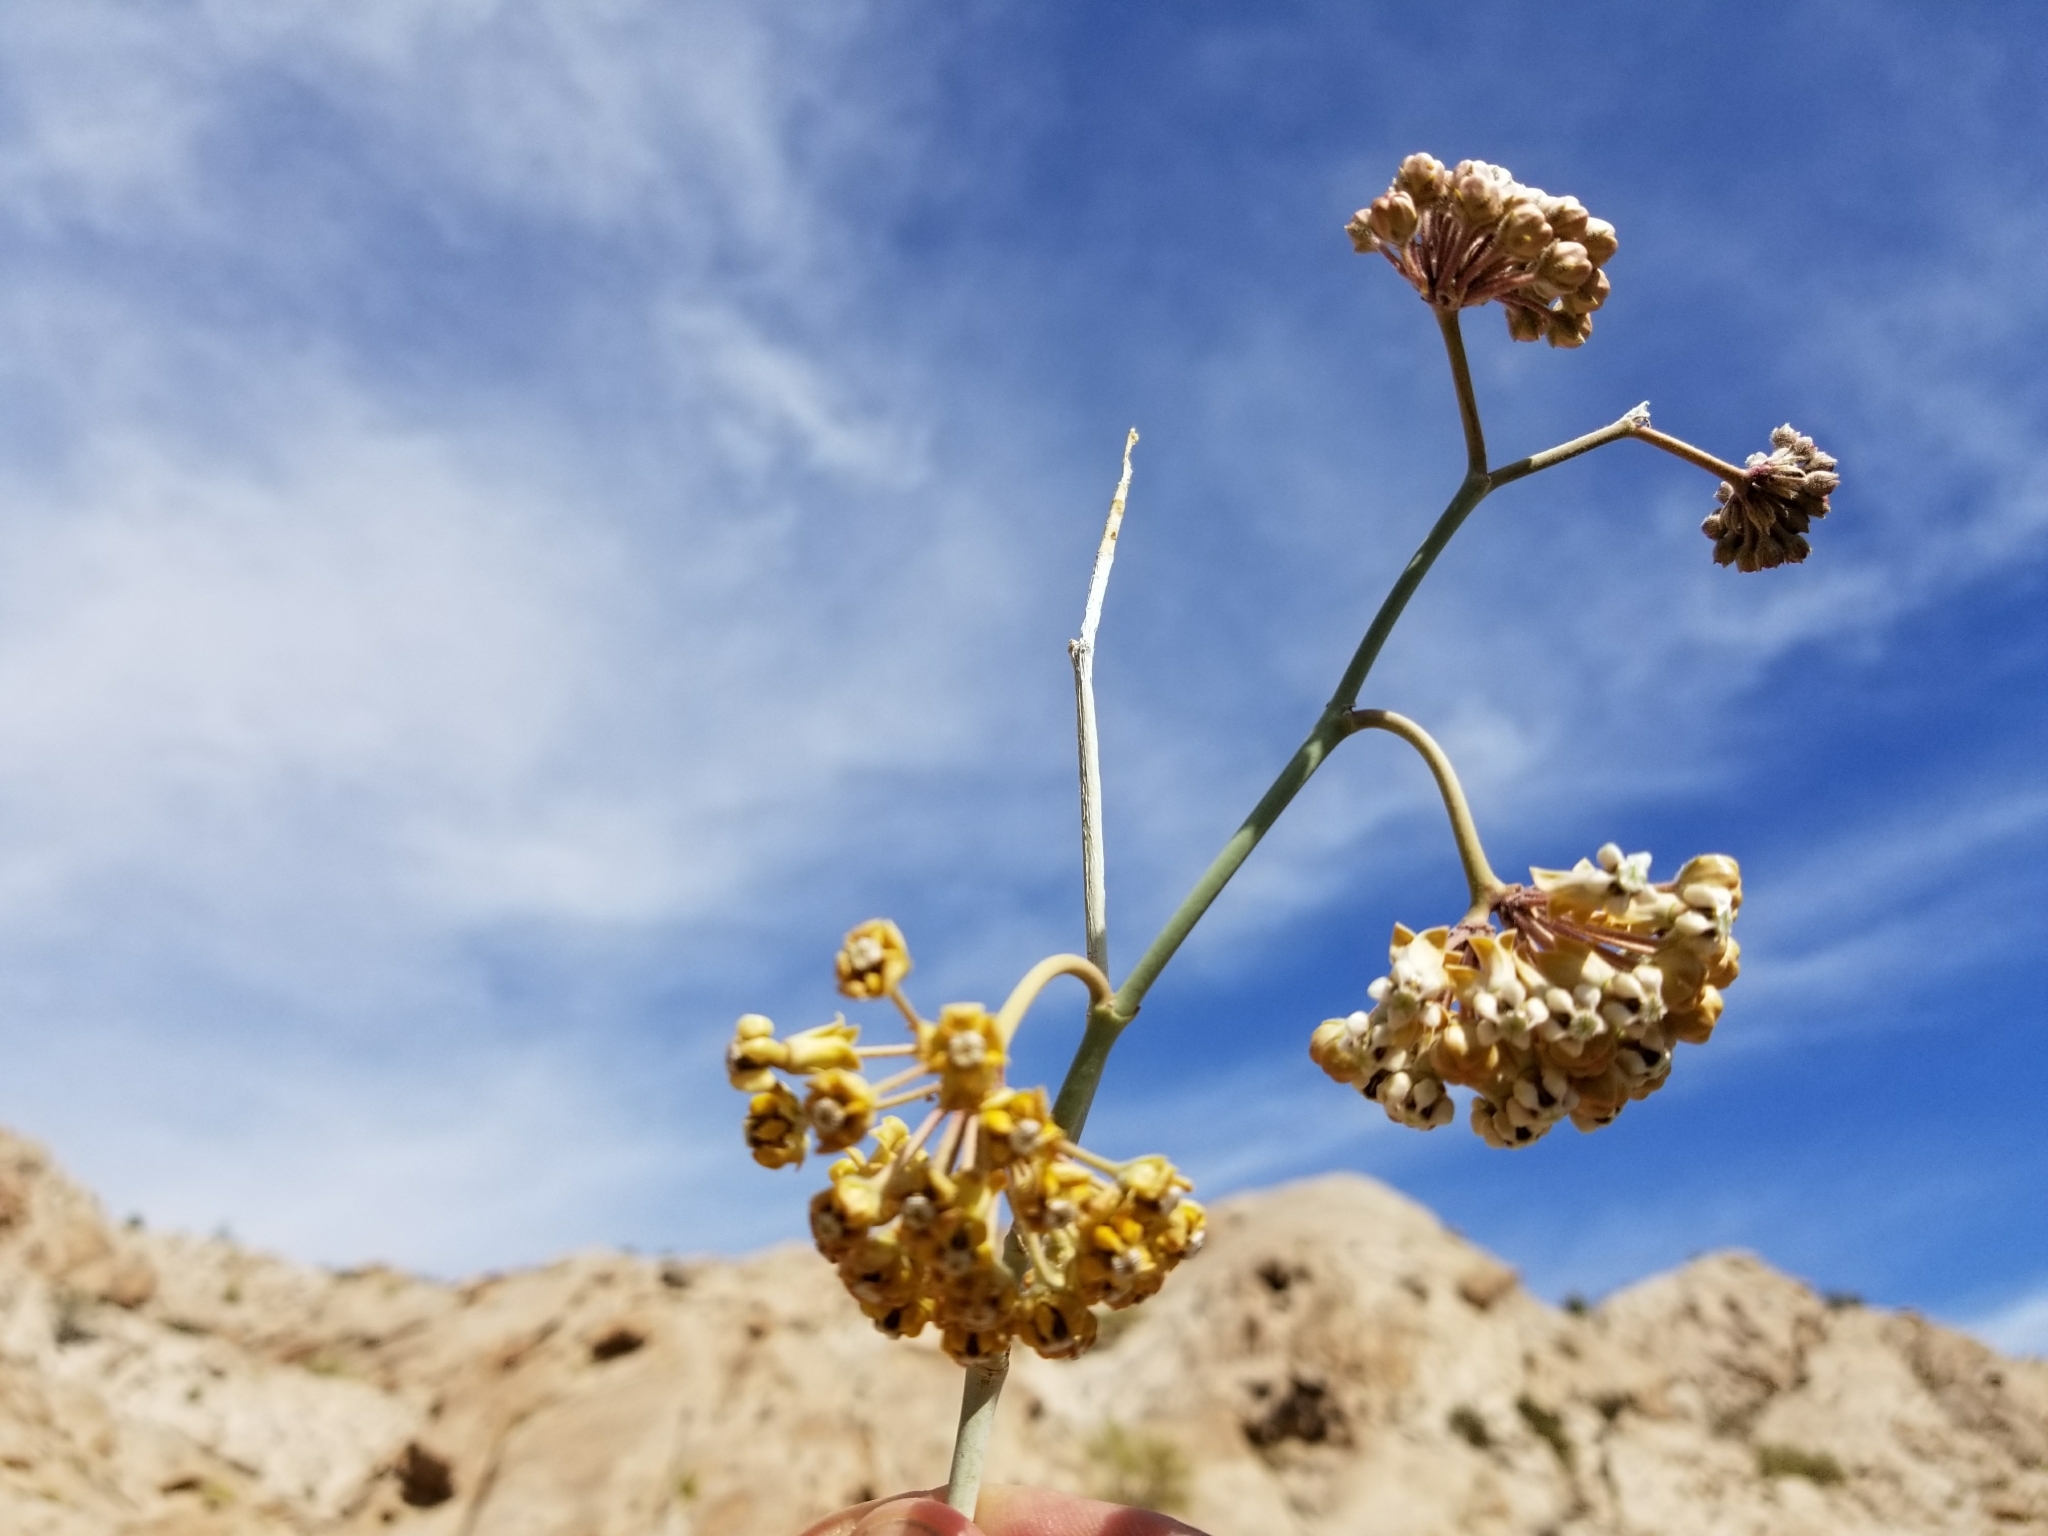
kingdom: Plantae
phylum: Tracheophyta
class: Magnoliopsida
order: Gentianales
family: Apocynaceae
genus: Asclepias
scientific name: Asclepias albicans
